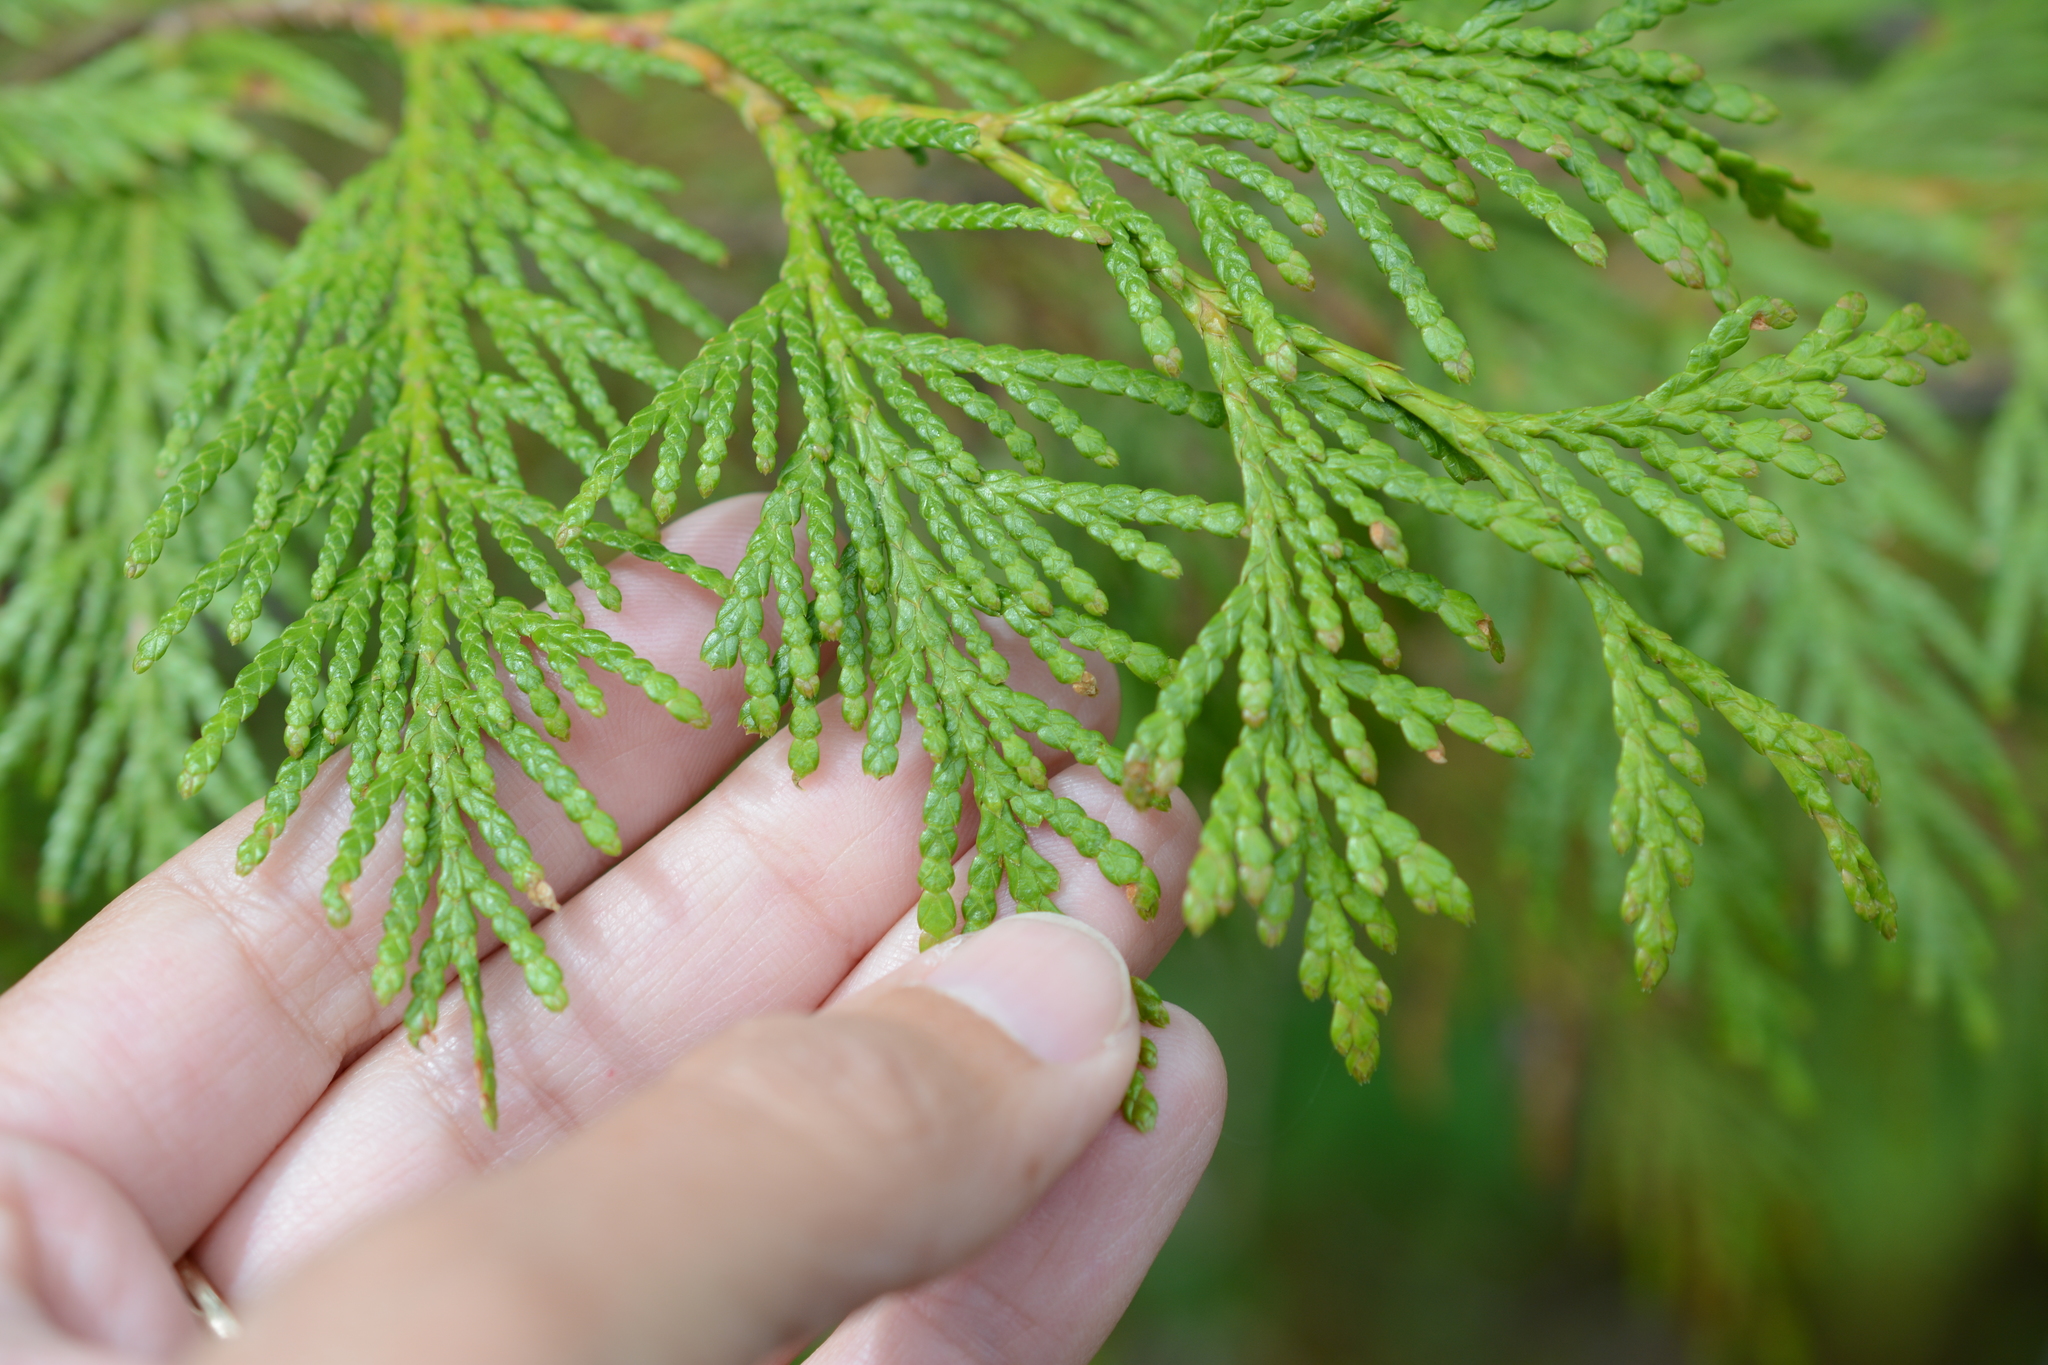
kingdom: Plantae
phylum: Tracheophyta
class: Pinopsida
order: Pinales
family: Cupressaceae
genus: Thuja
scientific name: Thuja plicata
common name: Western red-cedar
